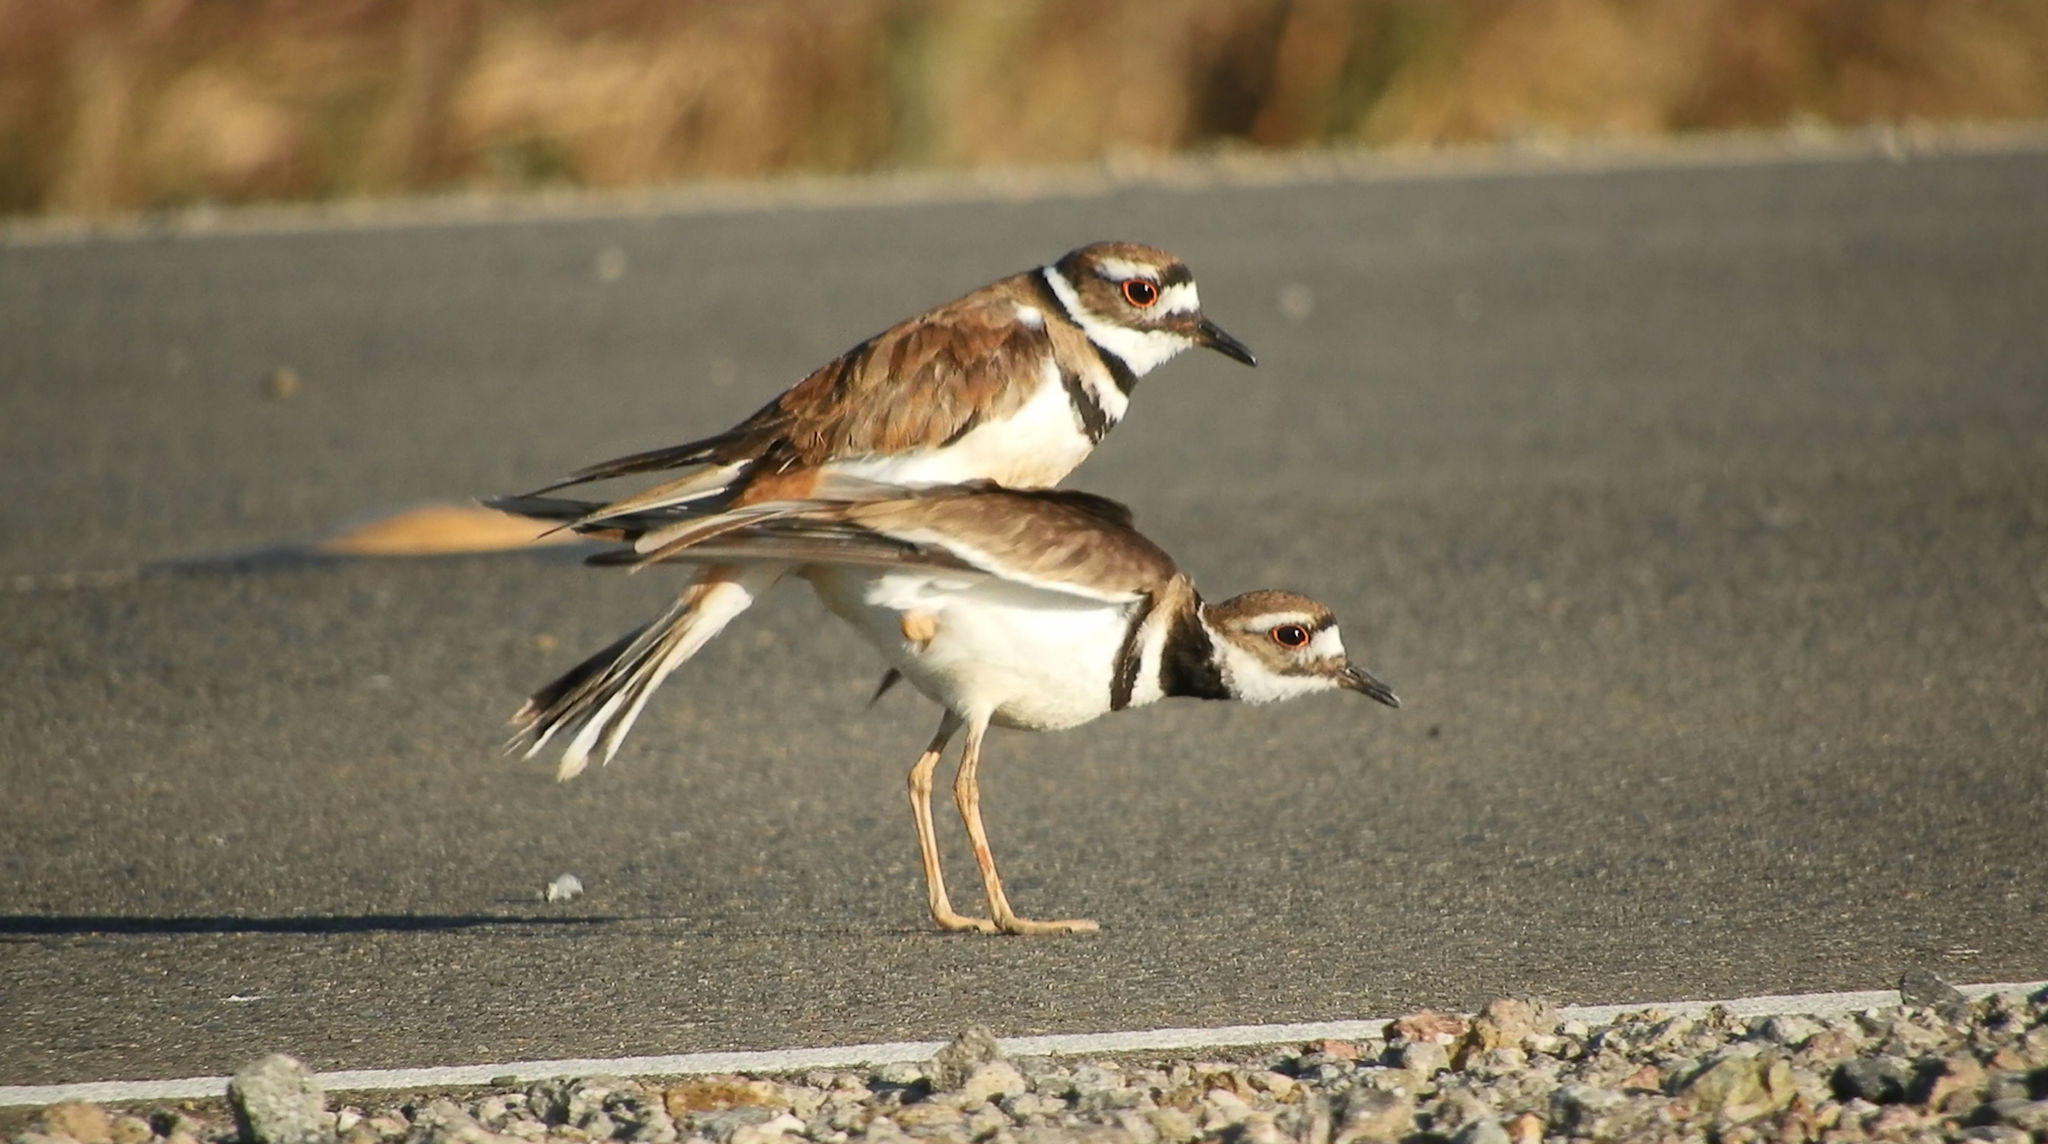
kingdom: Animalia
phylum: Chordata
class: Aves
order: Charadriiformes
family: Charadriidae
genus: Charadrius
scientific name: Charadrius vociferus
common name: Killdeer
